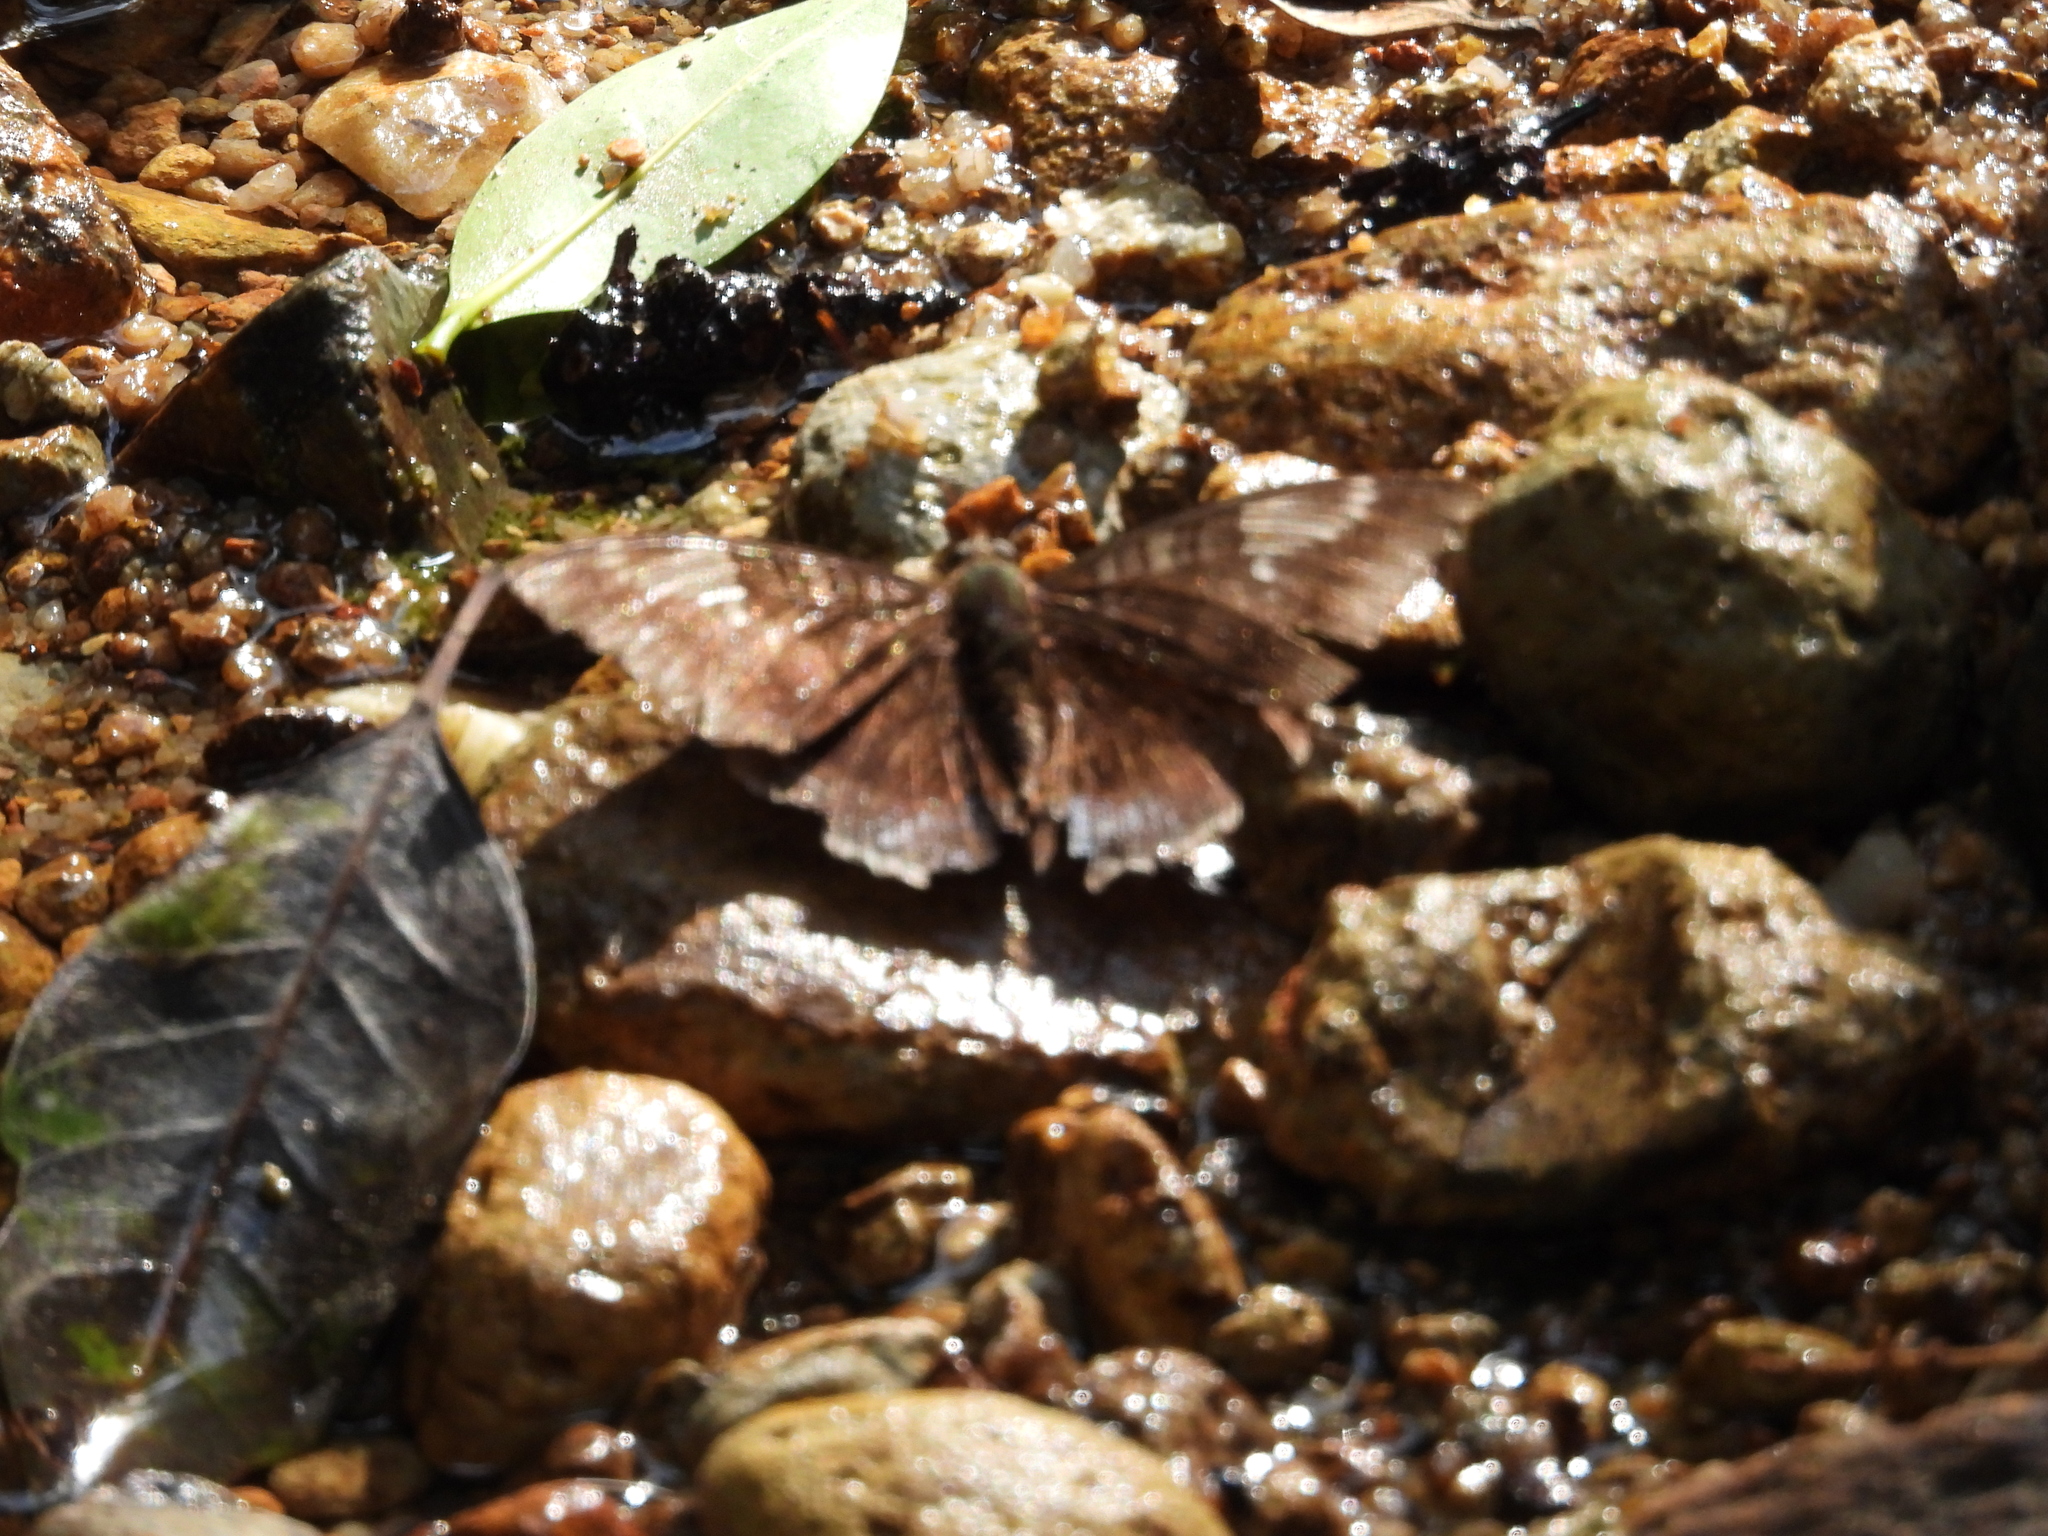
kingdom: Animalia
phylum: Arthropoda
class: Insecta
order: Lepidoptera
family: Nymphalidae
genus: Euthalia
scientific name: Euthalia phemius
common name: White-edged blue baron
